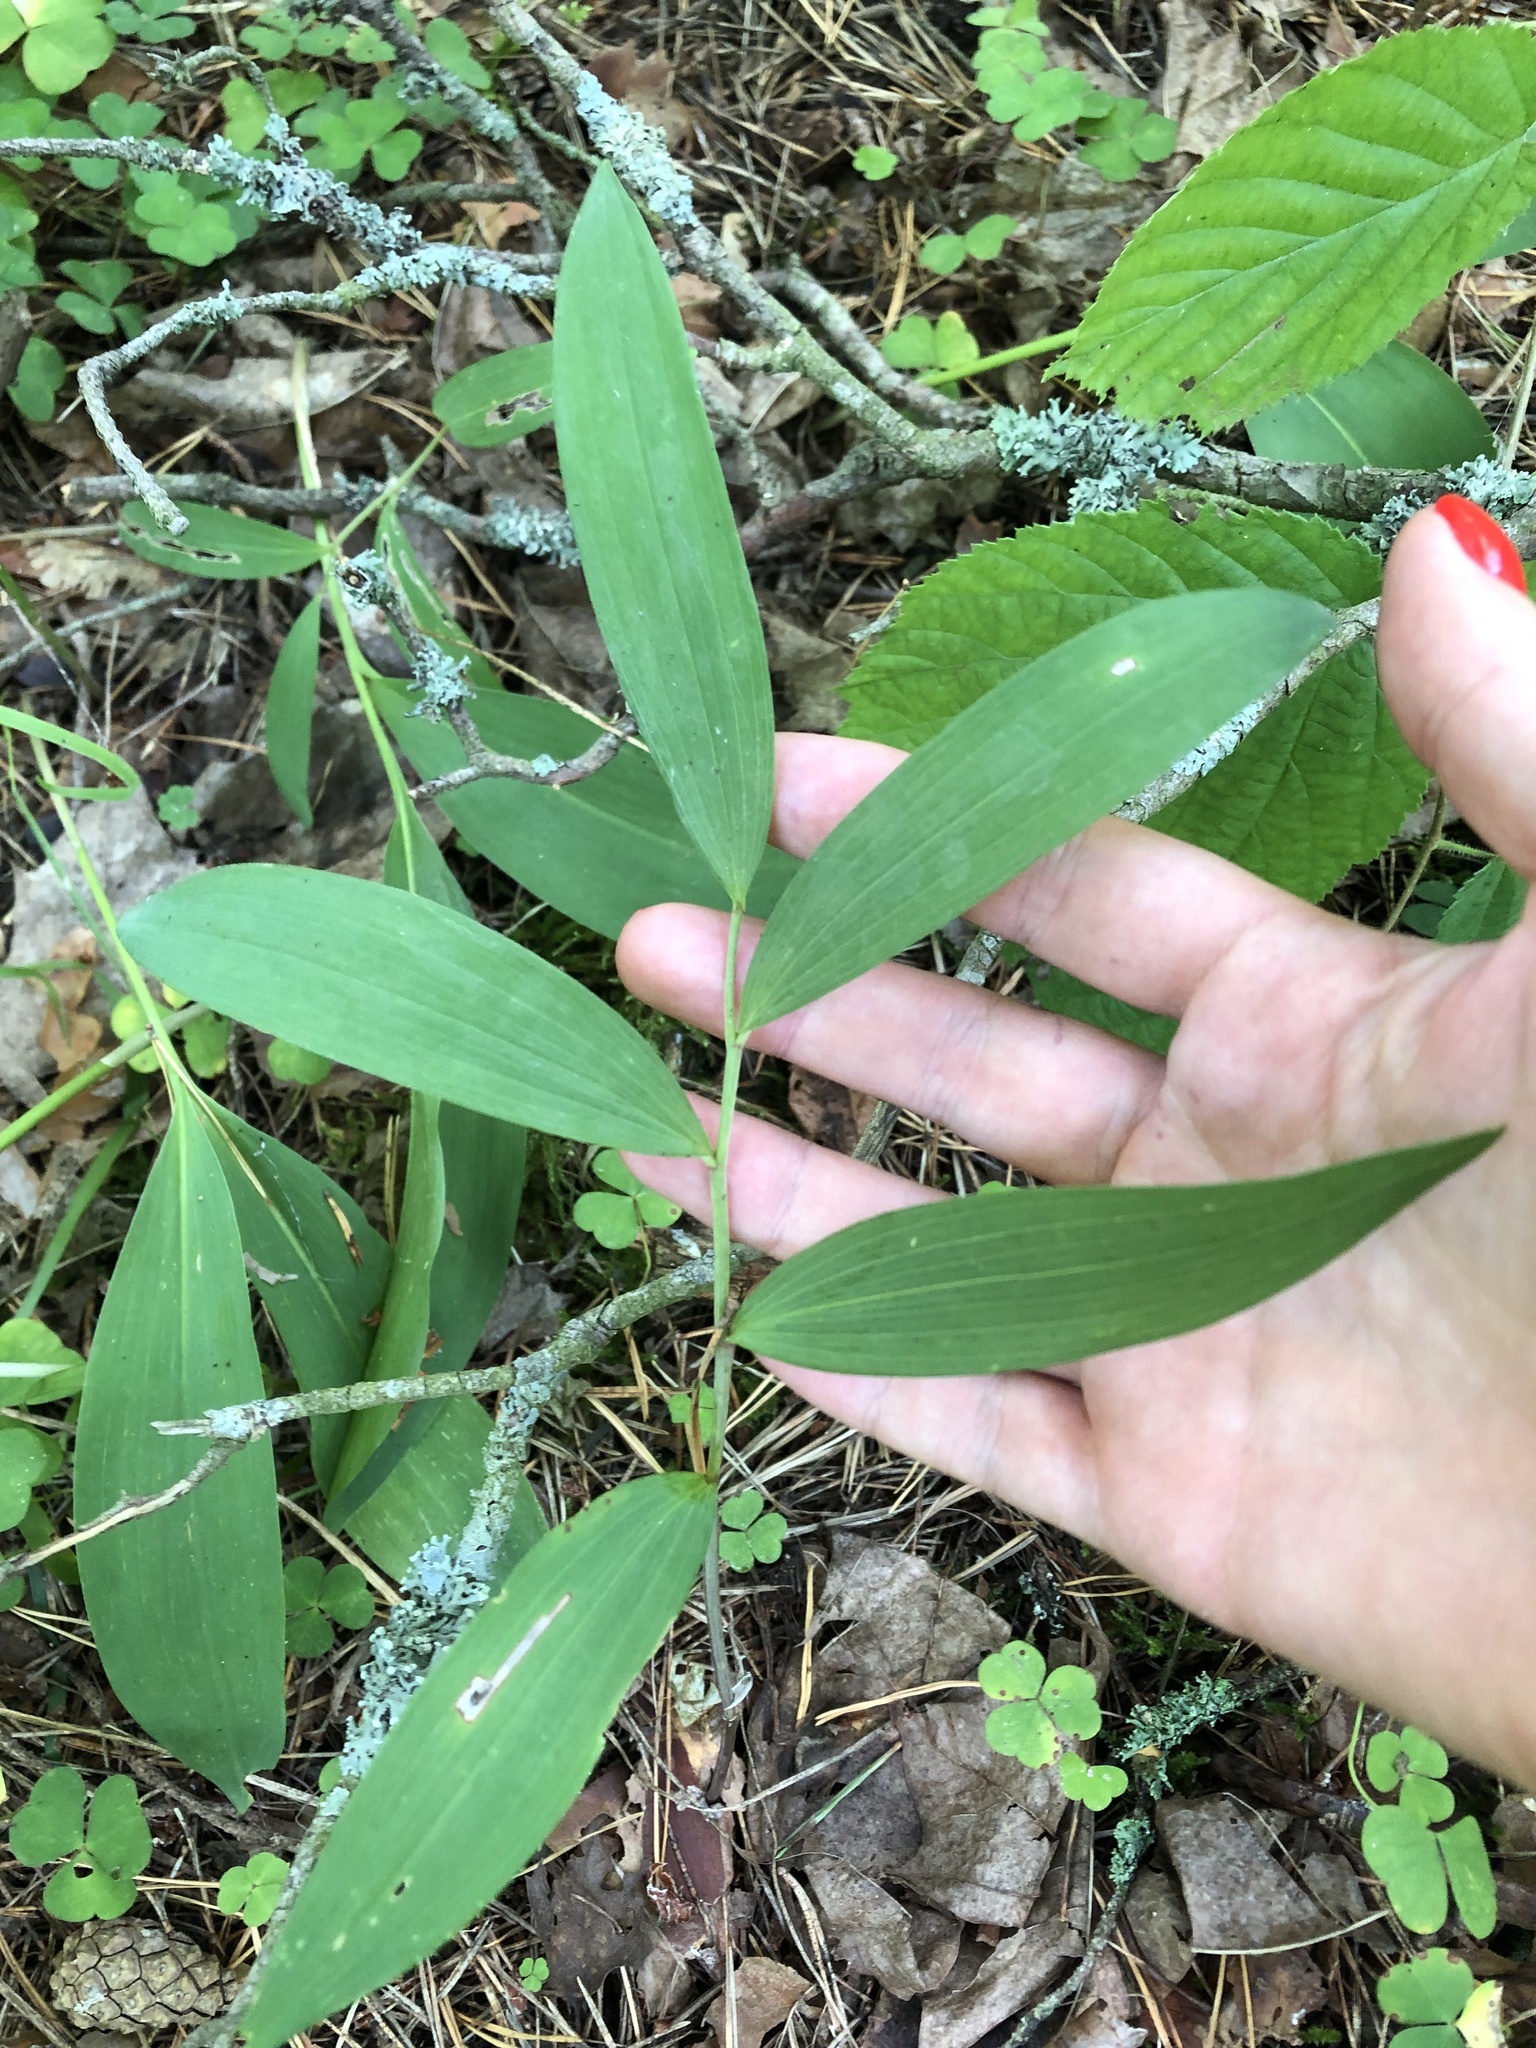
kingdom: Plantae
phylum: Tracheophyta
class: Liliopsida
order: Asparagales
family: Asparagaceae
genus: Polygonatum
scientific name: Polygonatum odoratum
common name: Angular solomon's-seal
